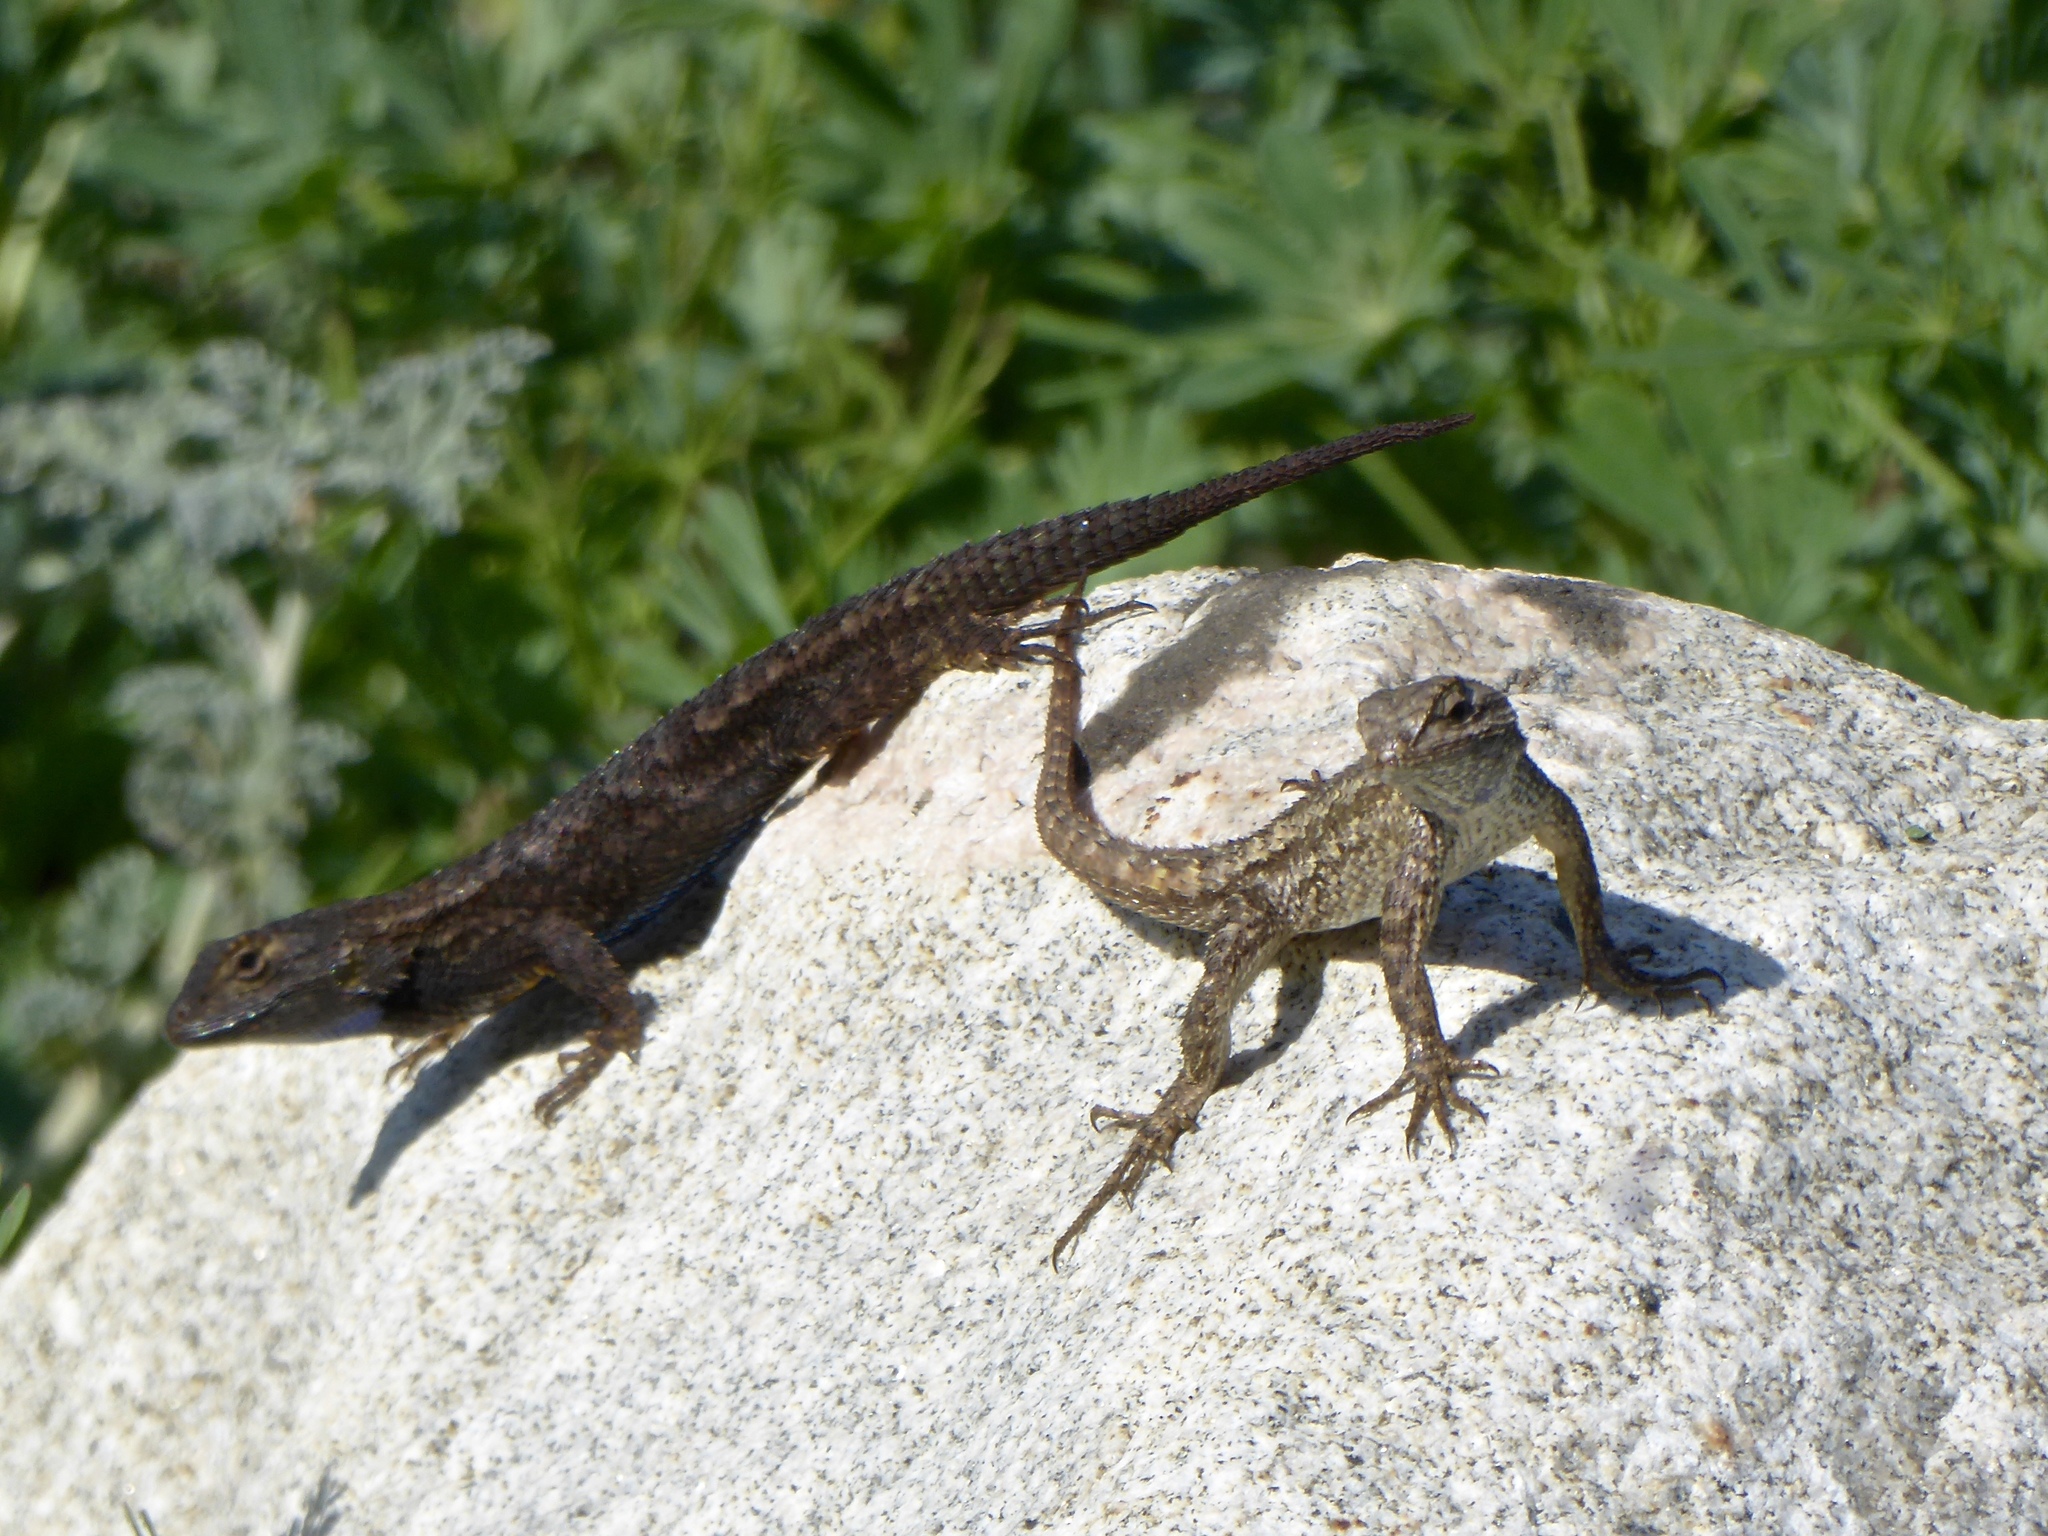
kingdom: Animalia
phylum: Chordata
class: Squamata
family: Phrynosomatidae
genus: Sceloporus
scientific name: Sceloporus occidentalis
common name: Western fence lizard
